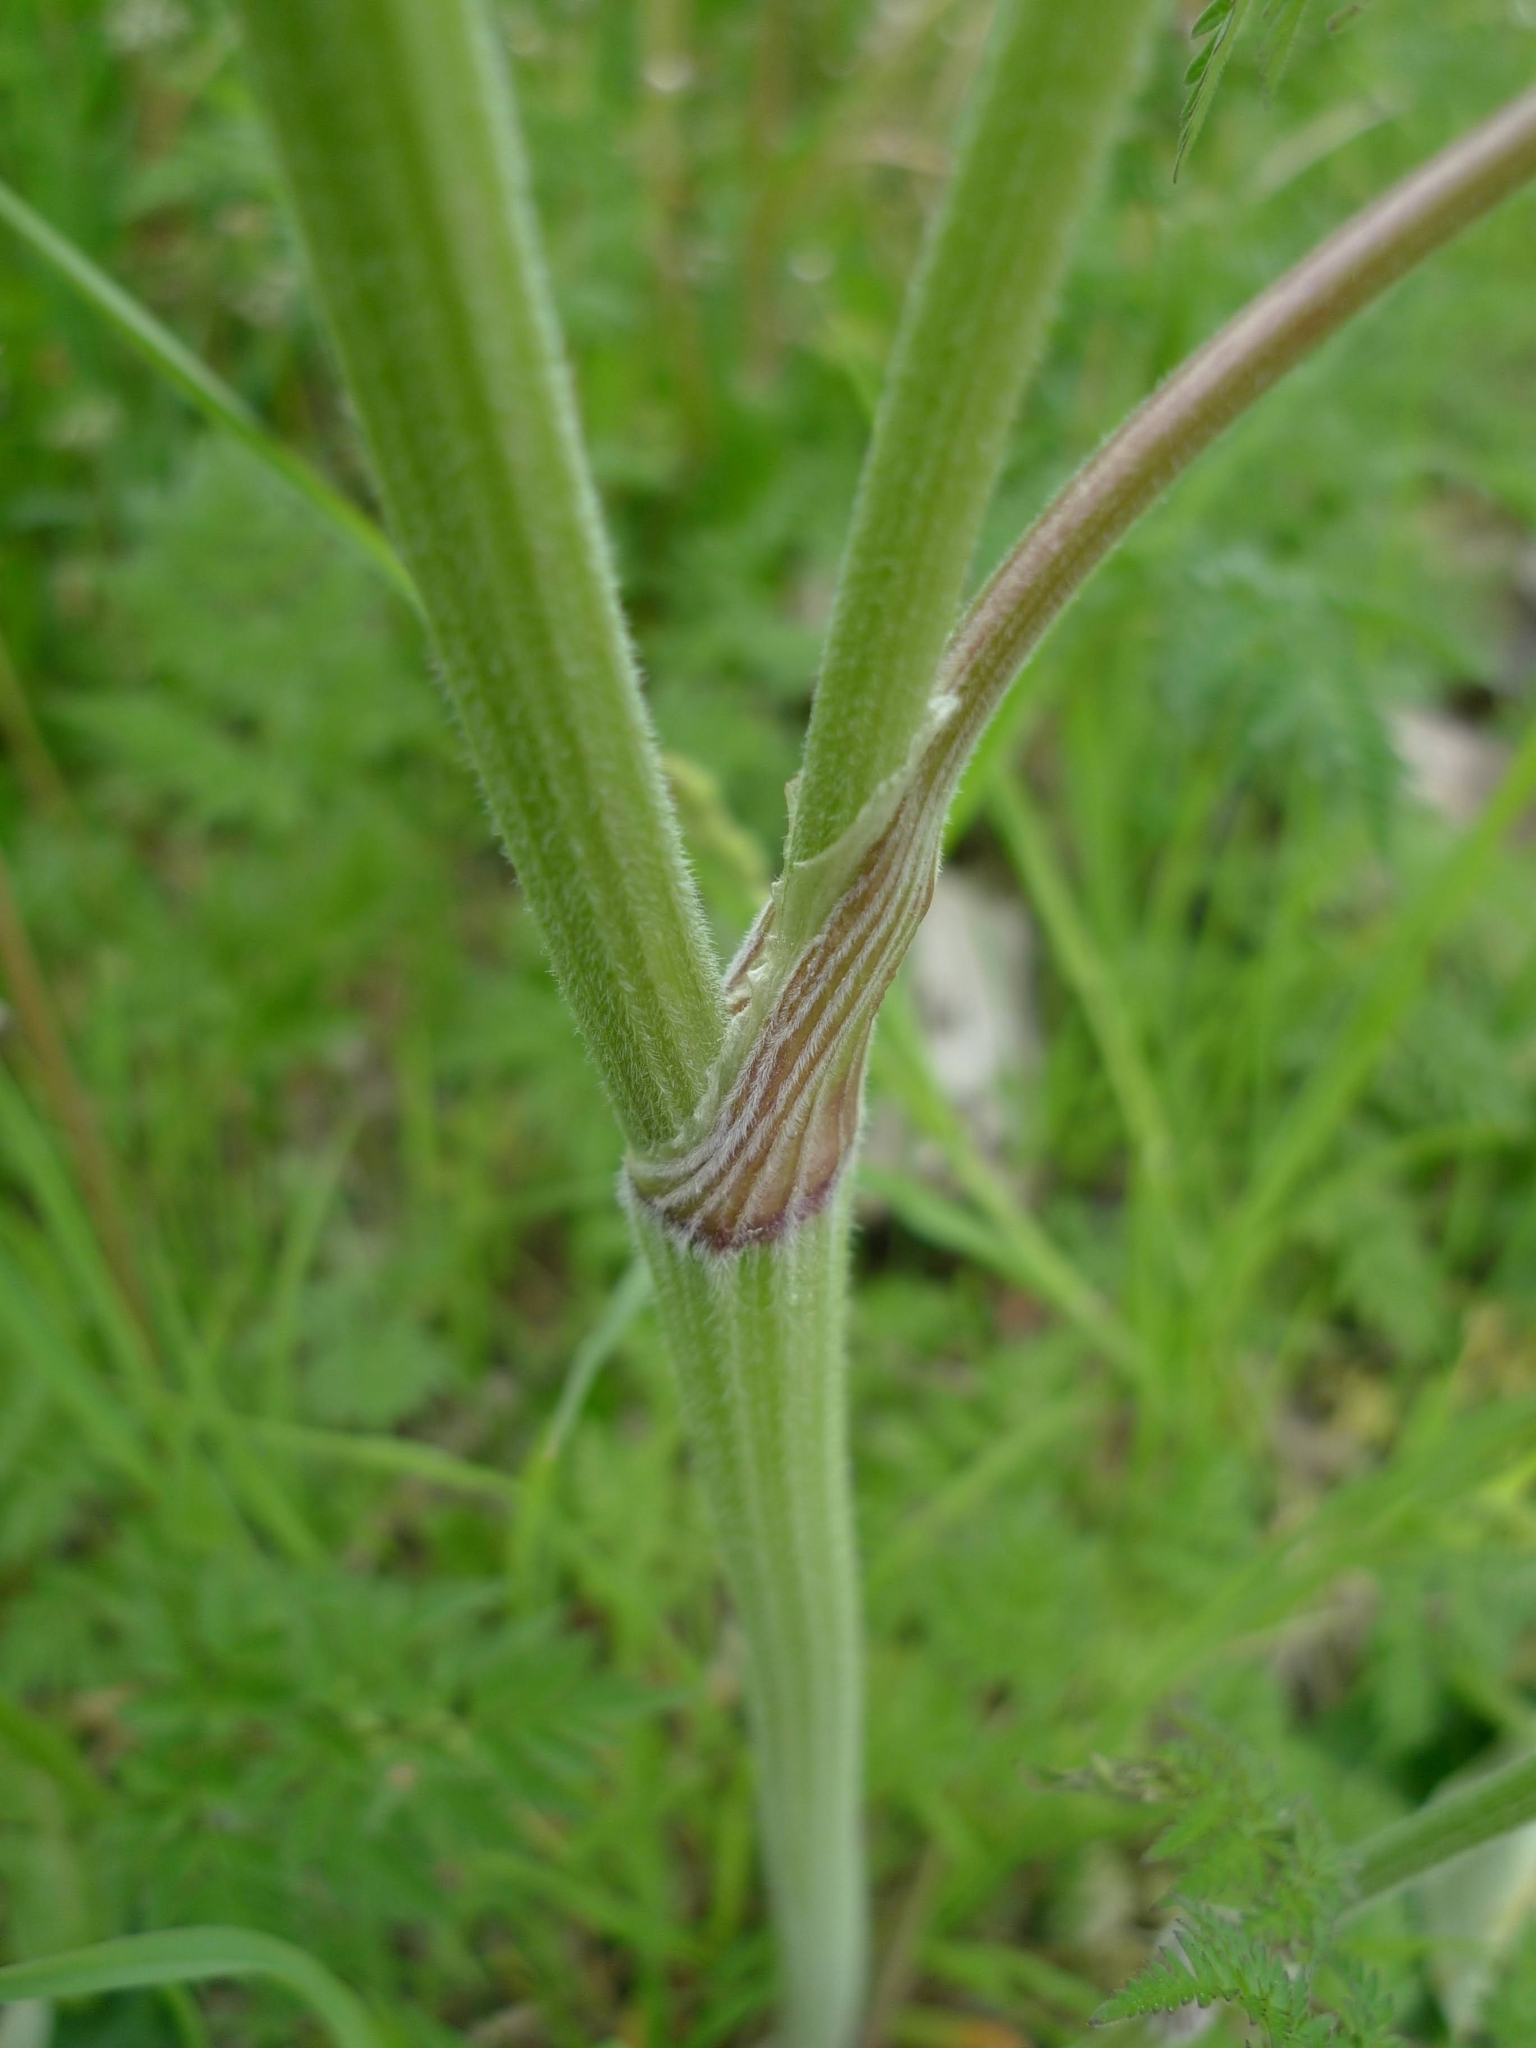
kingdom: Plantae
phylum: Tracheophyta
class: Magnoliopsida
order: Apiales
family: Apiaceae
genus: Anthriscus
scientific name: Anthriscus sylvestris
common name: Cow parsley
